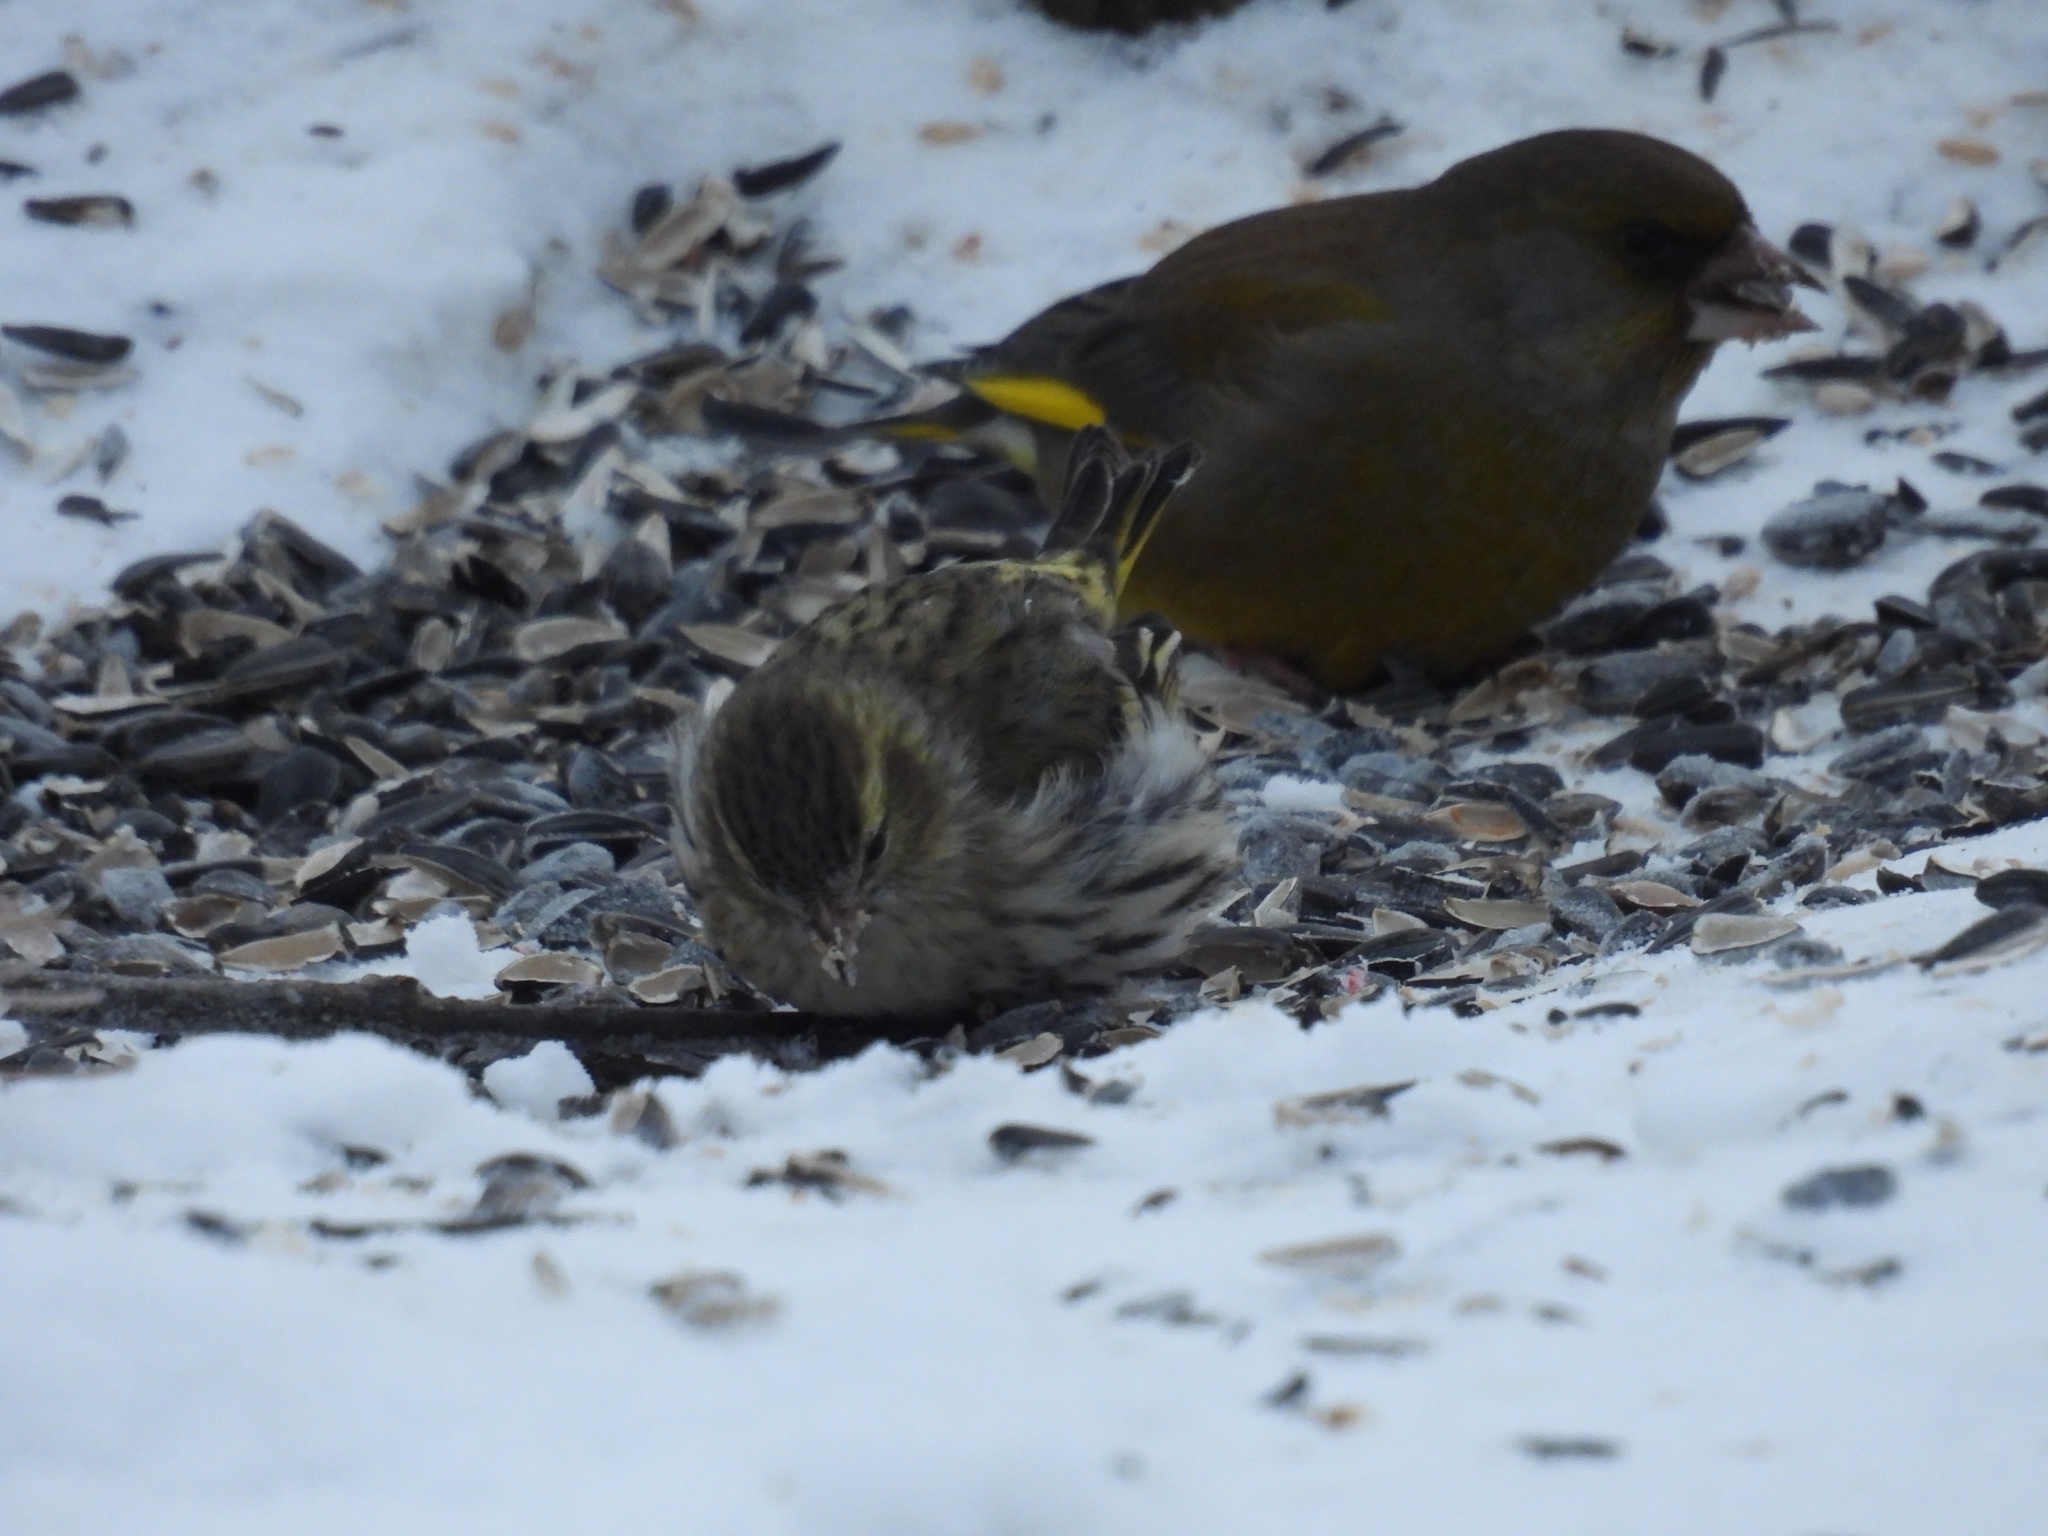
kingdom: Animalia
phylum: Chordata
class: Aves
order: Passeriformes
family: Fringillidae
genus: Spinus
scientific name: Spinus spinus
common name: Eurasian siskin
